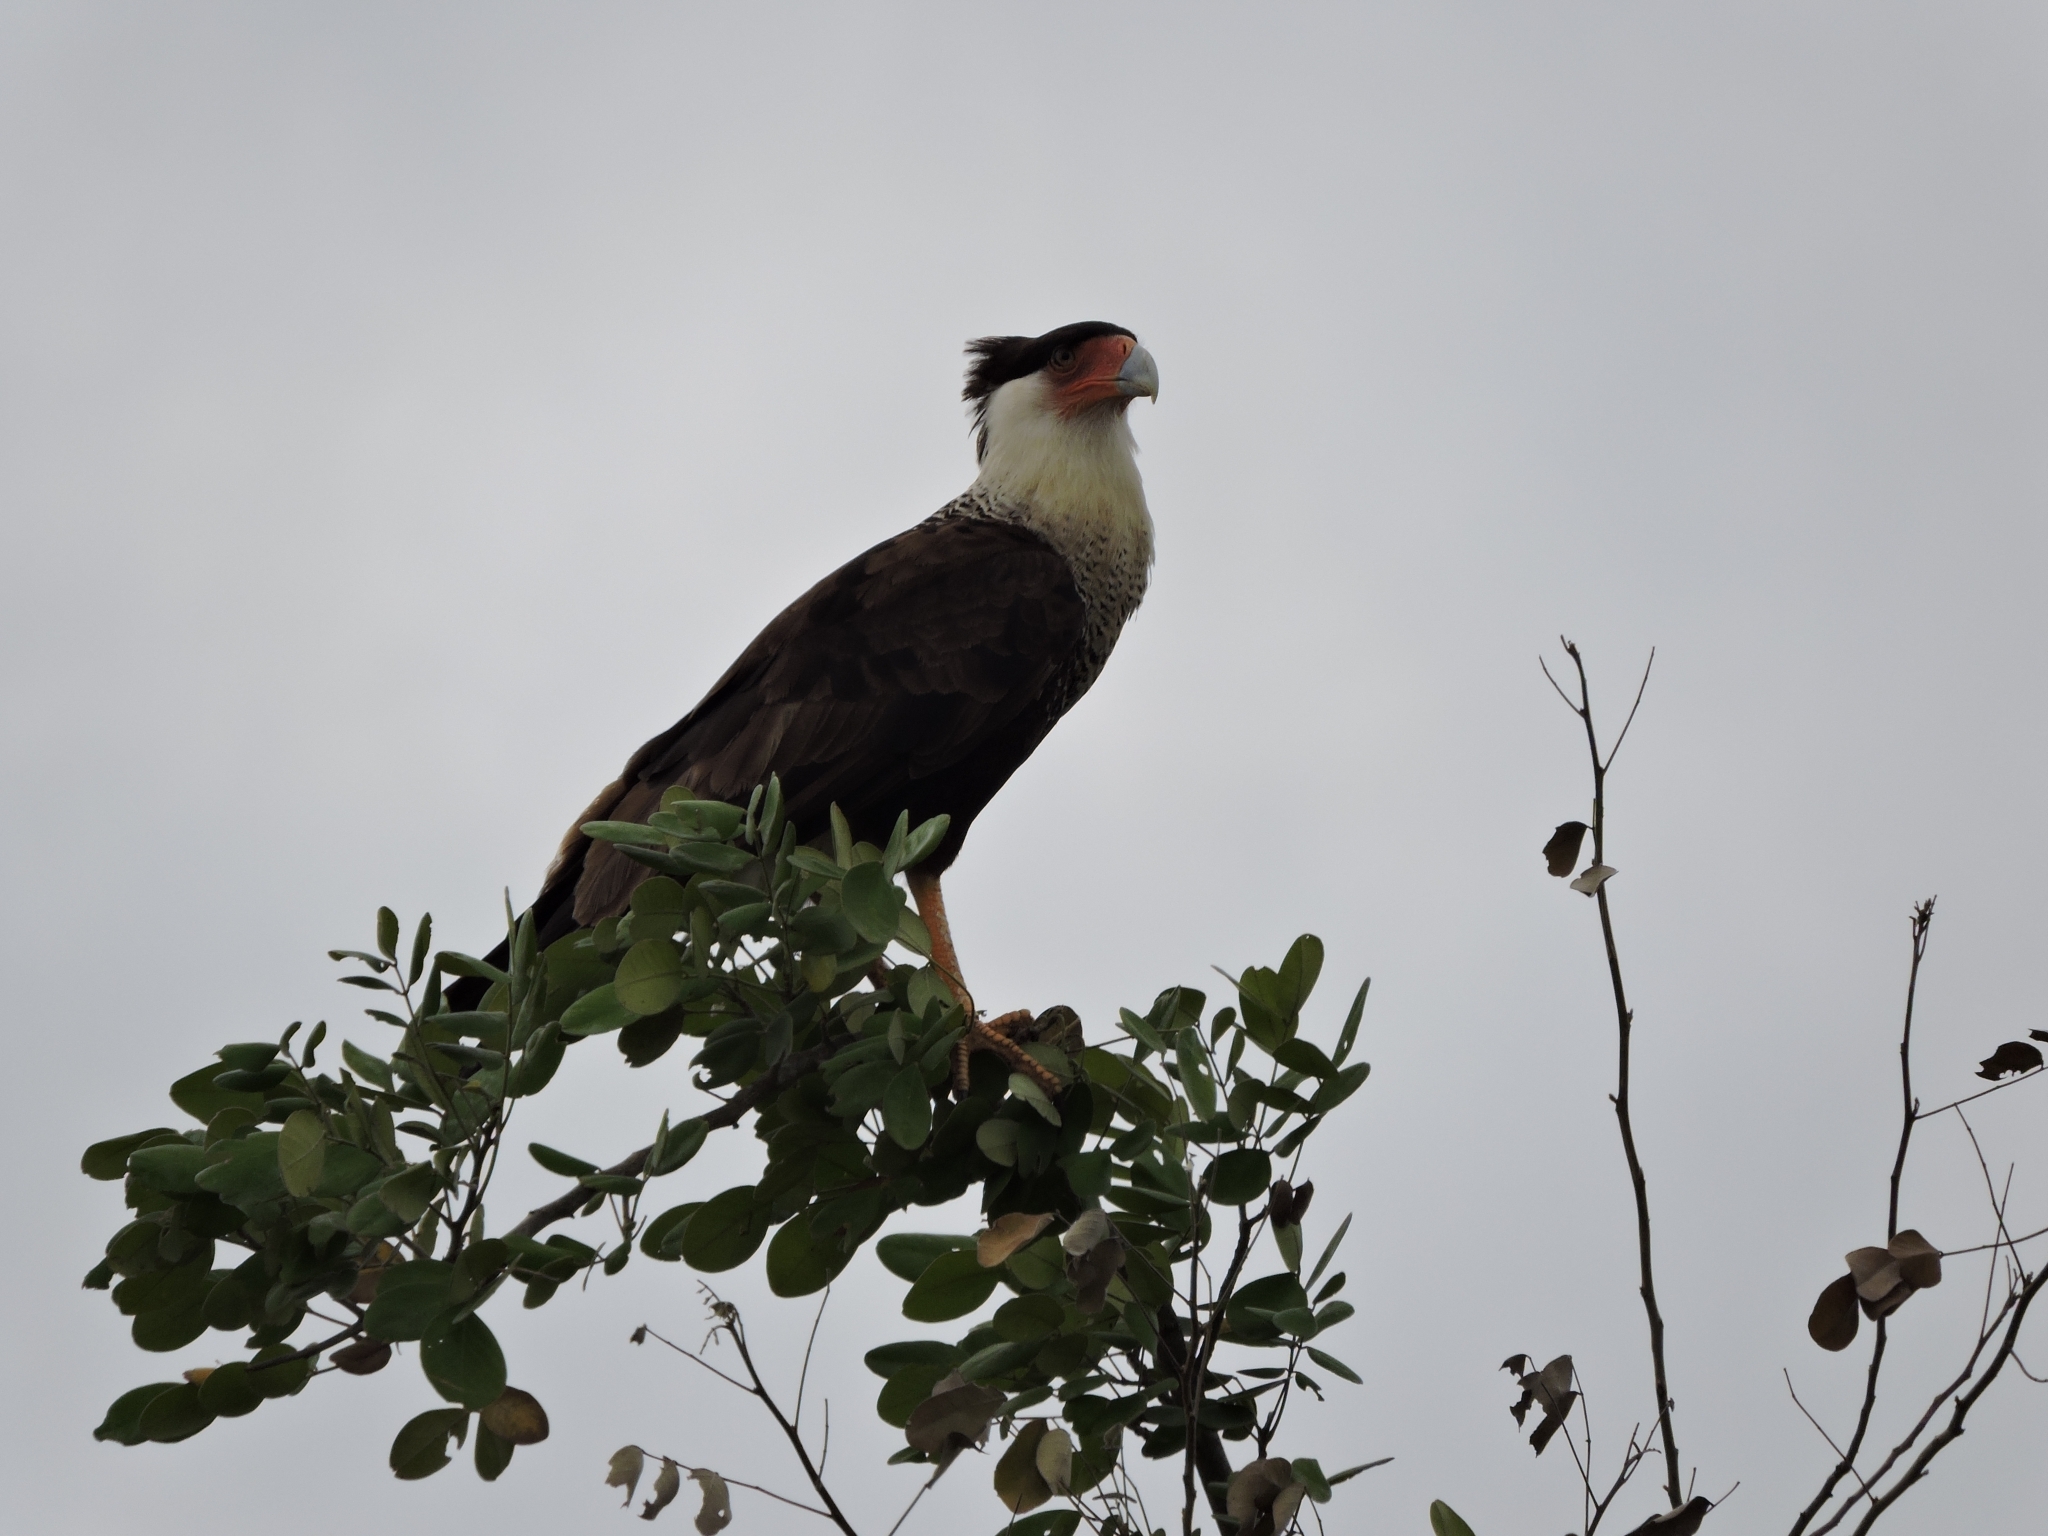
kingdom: Animalia
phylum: Chordata
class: Aves
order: Falconiformes
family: Falconidae
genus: Caracara
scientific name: Caracara plancus
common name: Southern caracara
